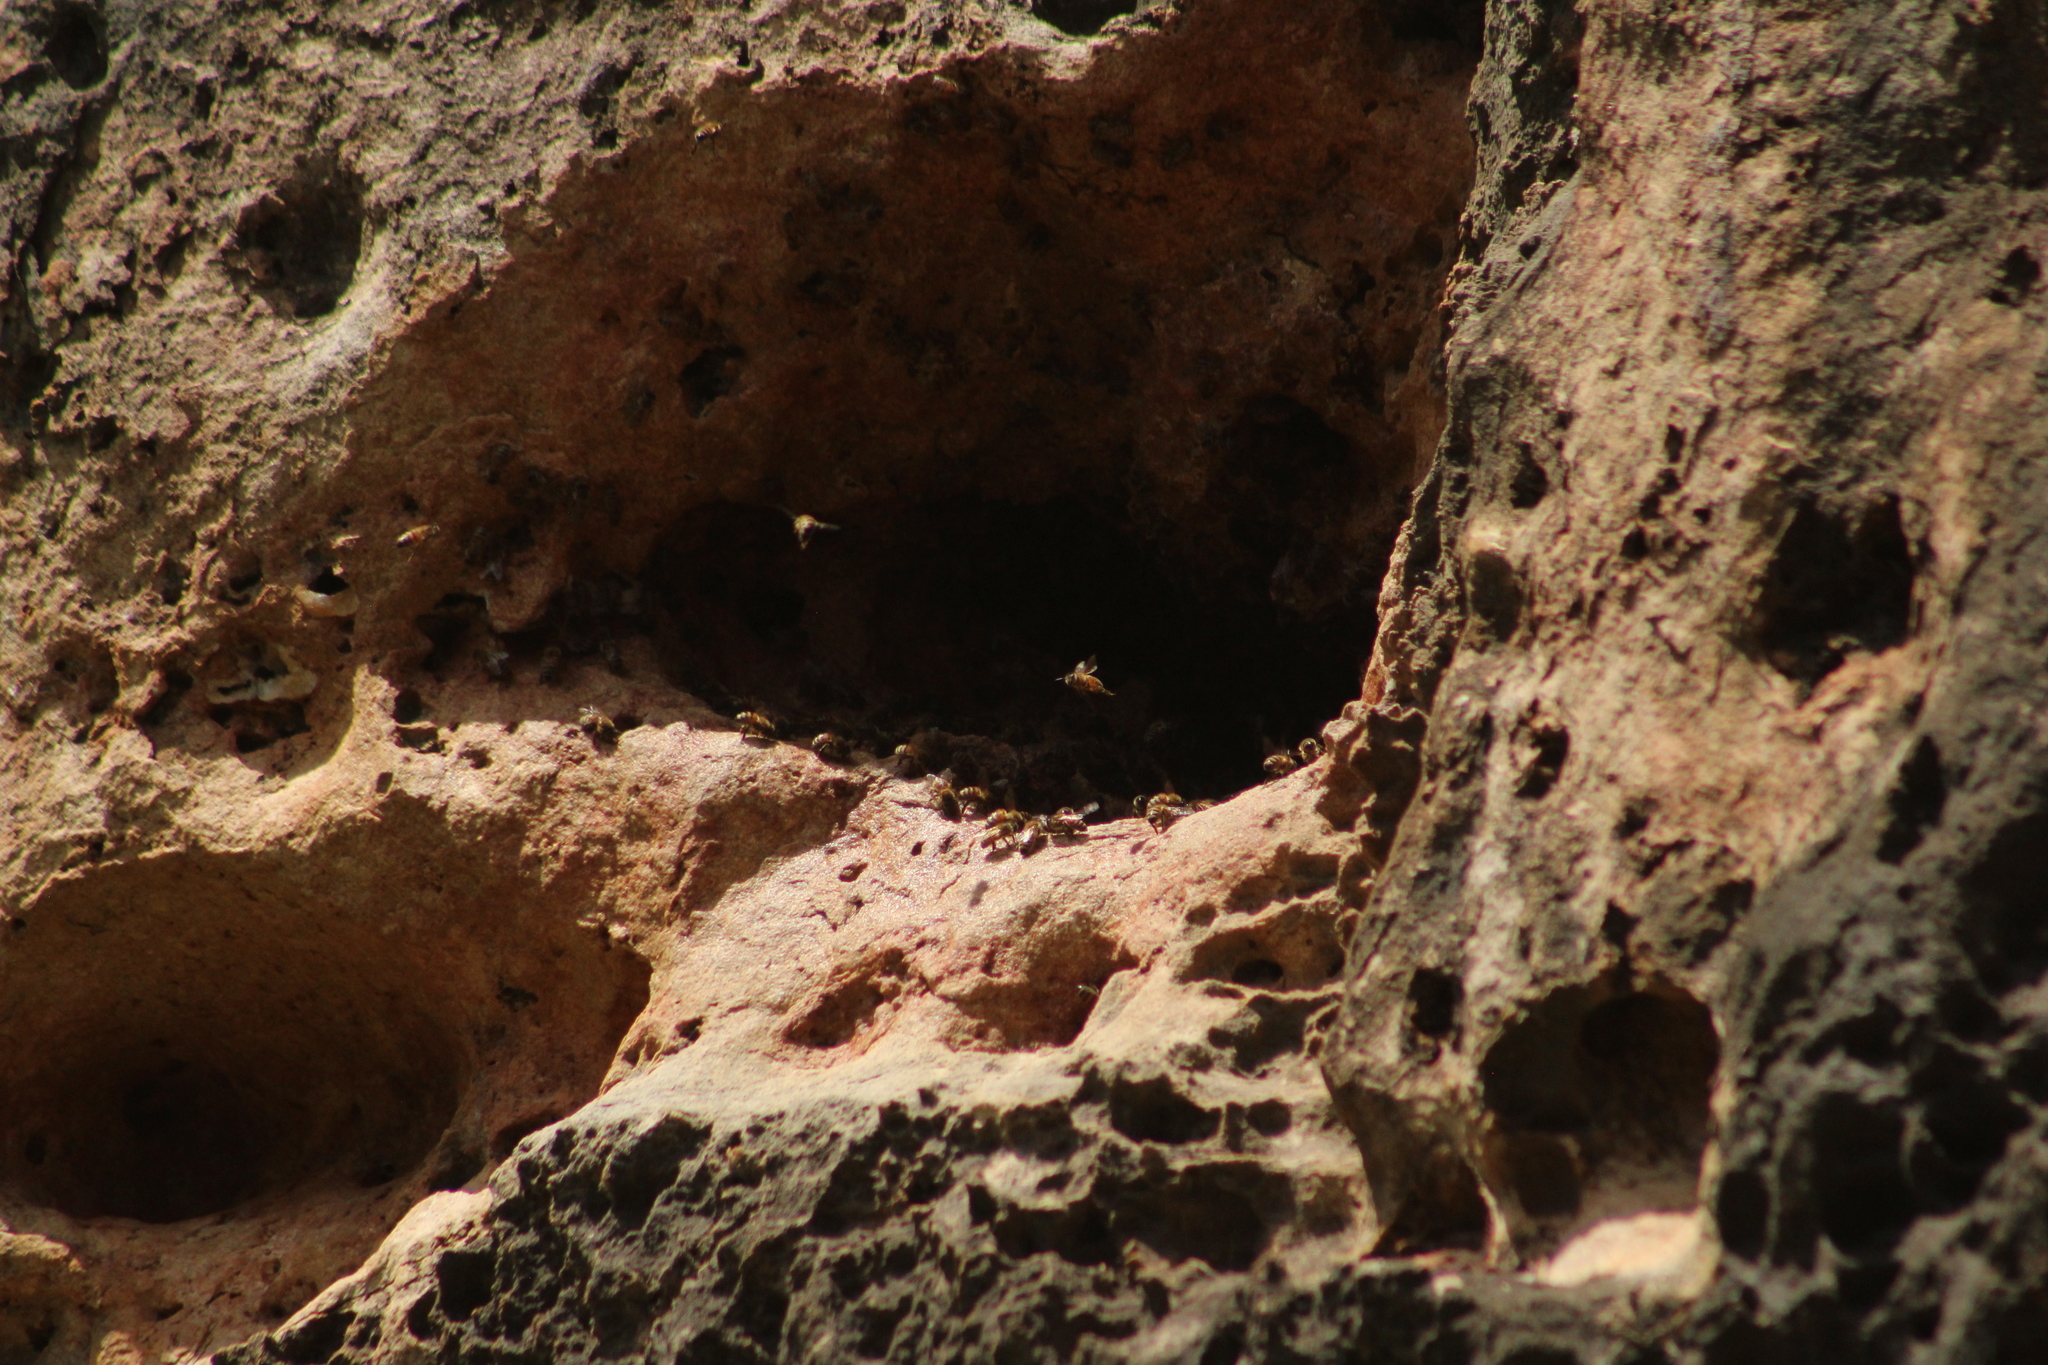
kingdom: Animalia
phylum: Arthropoda
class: Insecta
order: Hymenoptera
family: Apidae
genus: Apis
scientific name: Apis mellifera
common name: Honey bee
